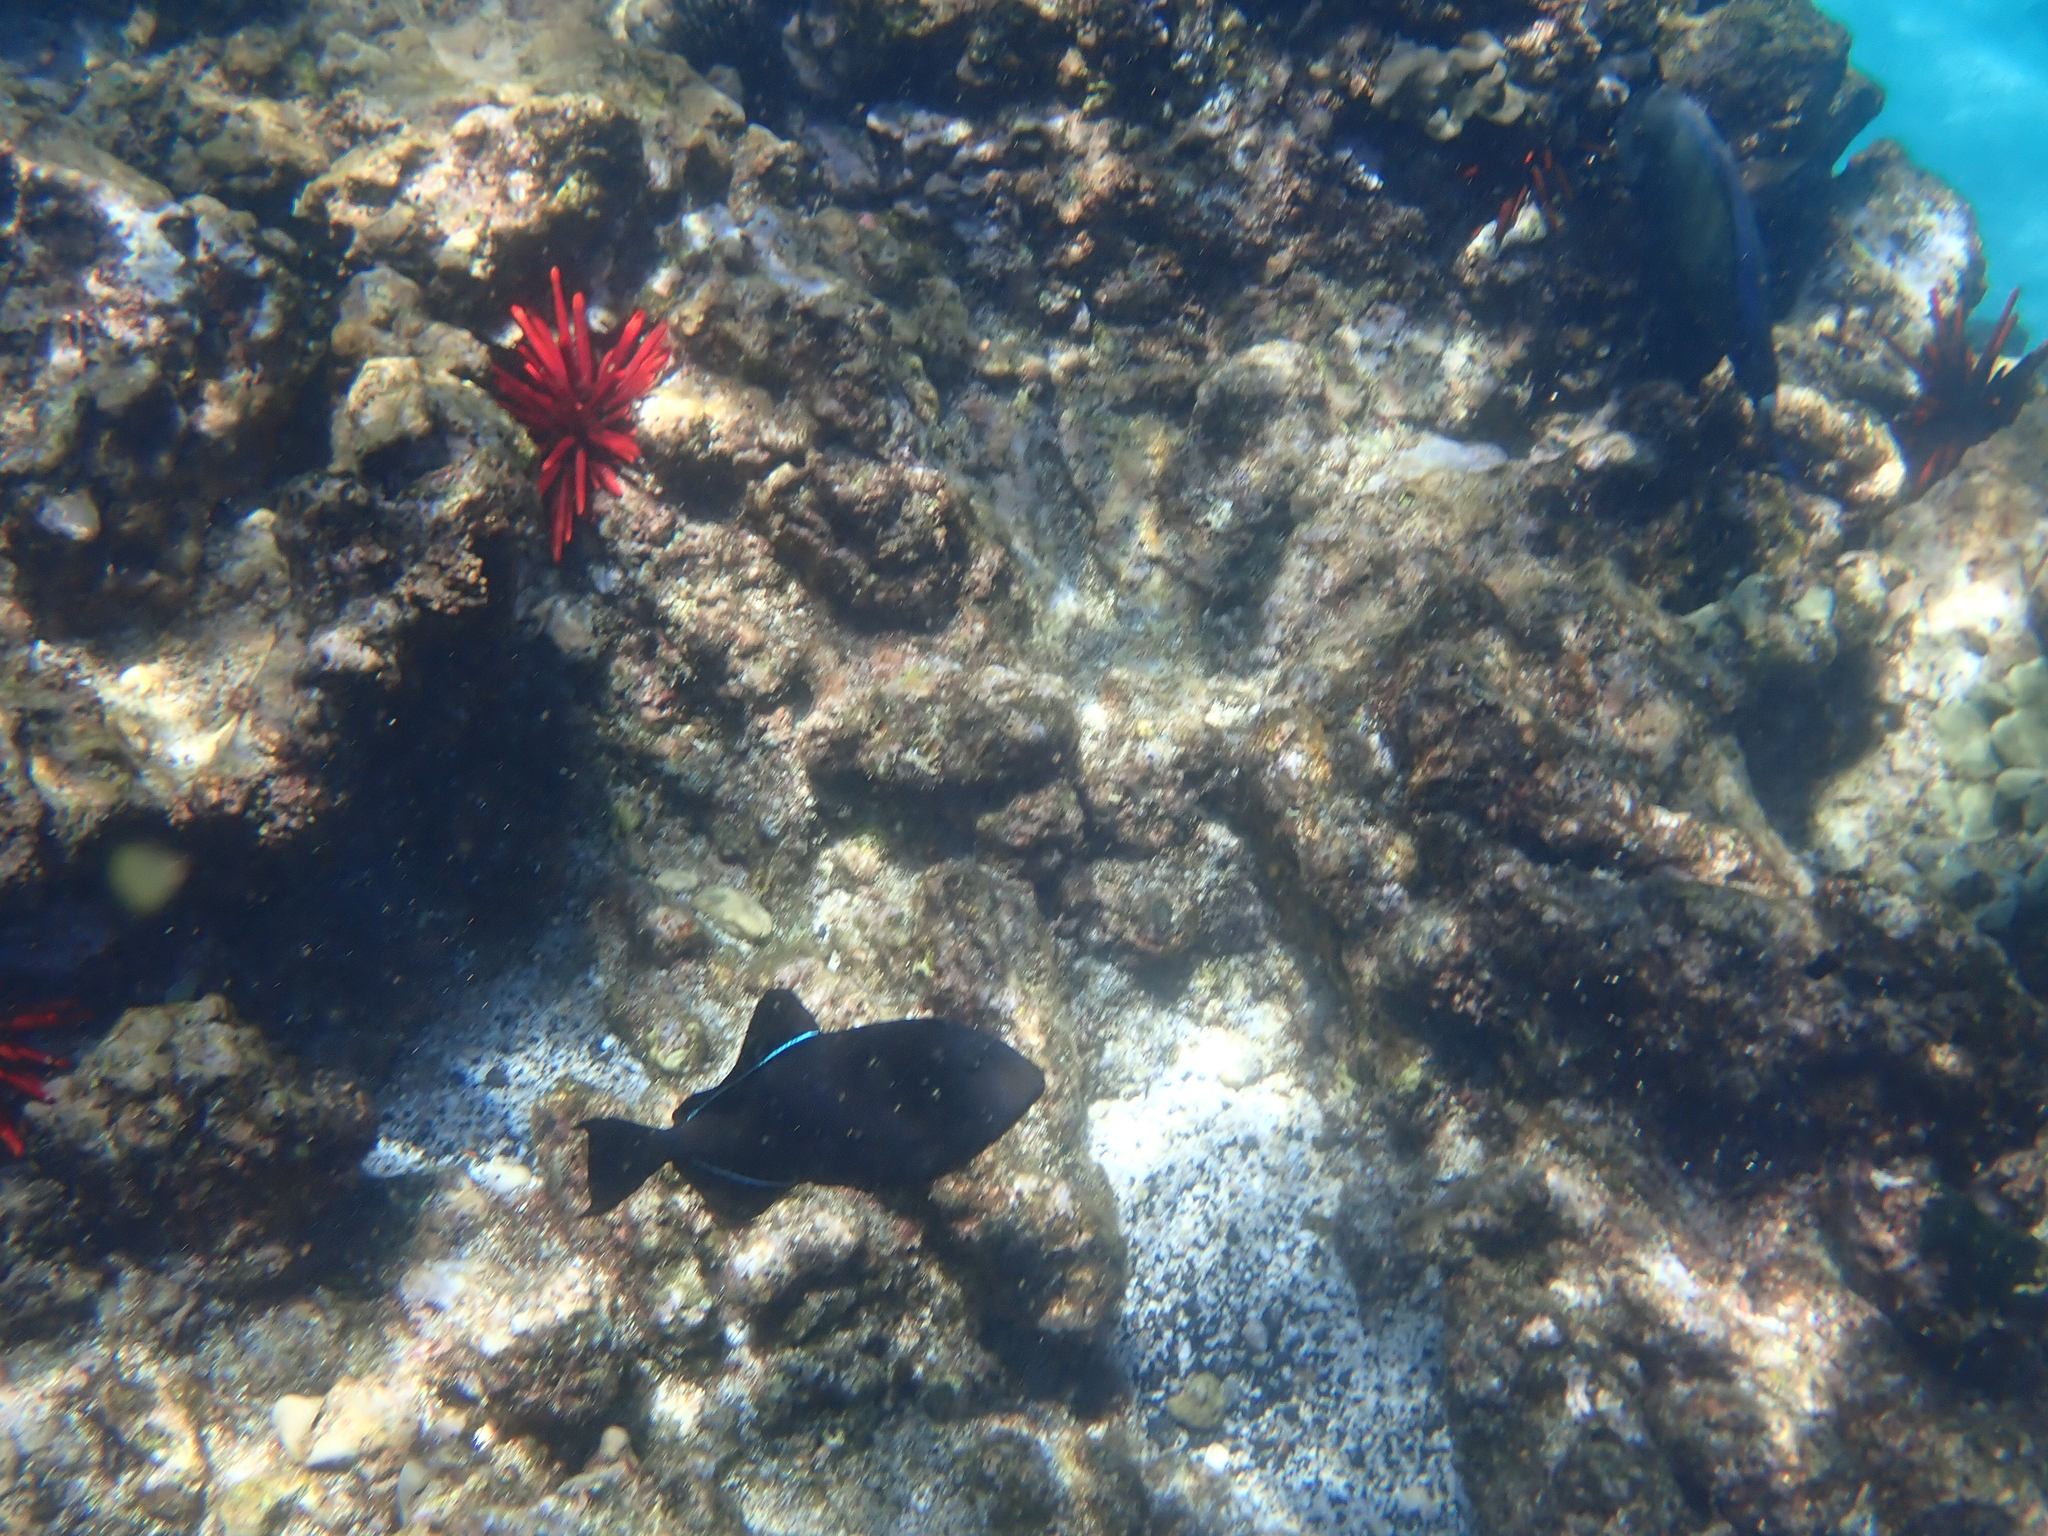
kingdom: Animalia
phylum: Chordata
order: Tetraodontiformes
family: Balistidae
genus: Melichthys
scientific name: Melichthys niger
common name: Black durgon
